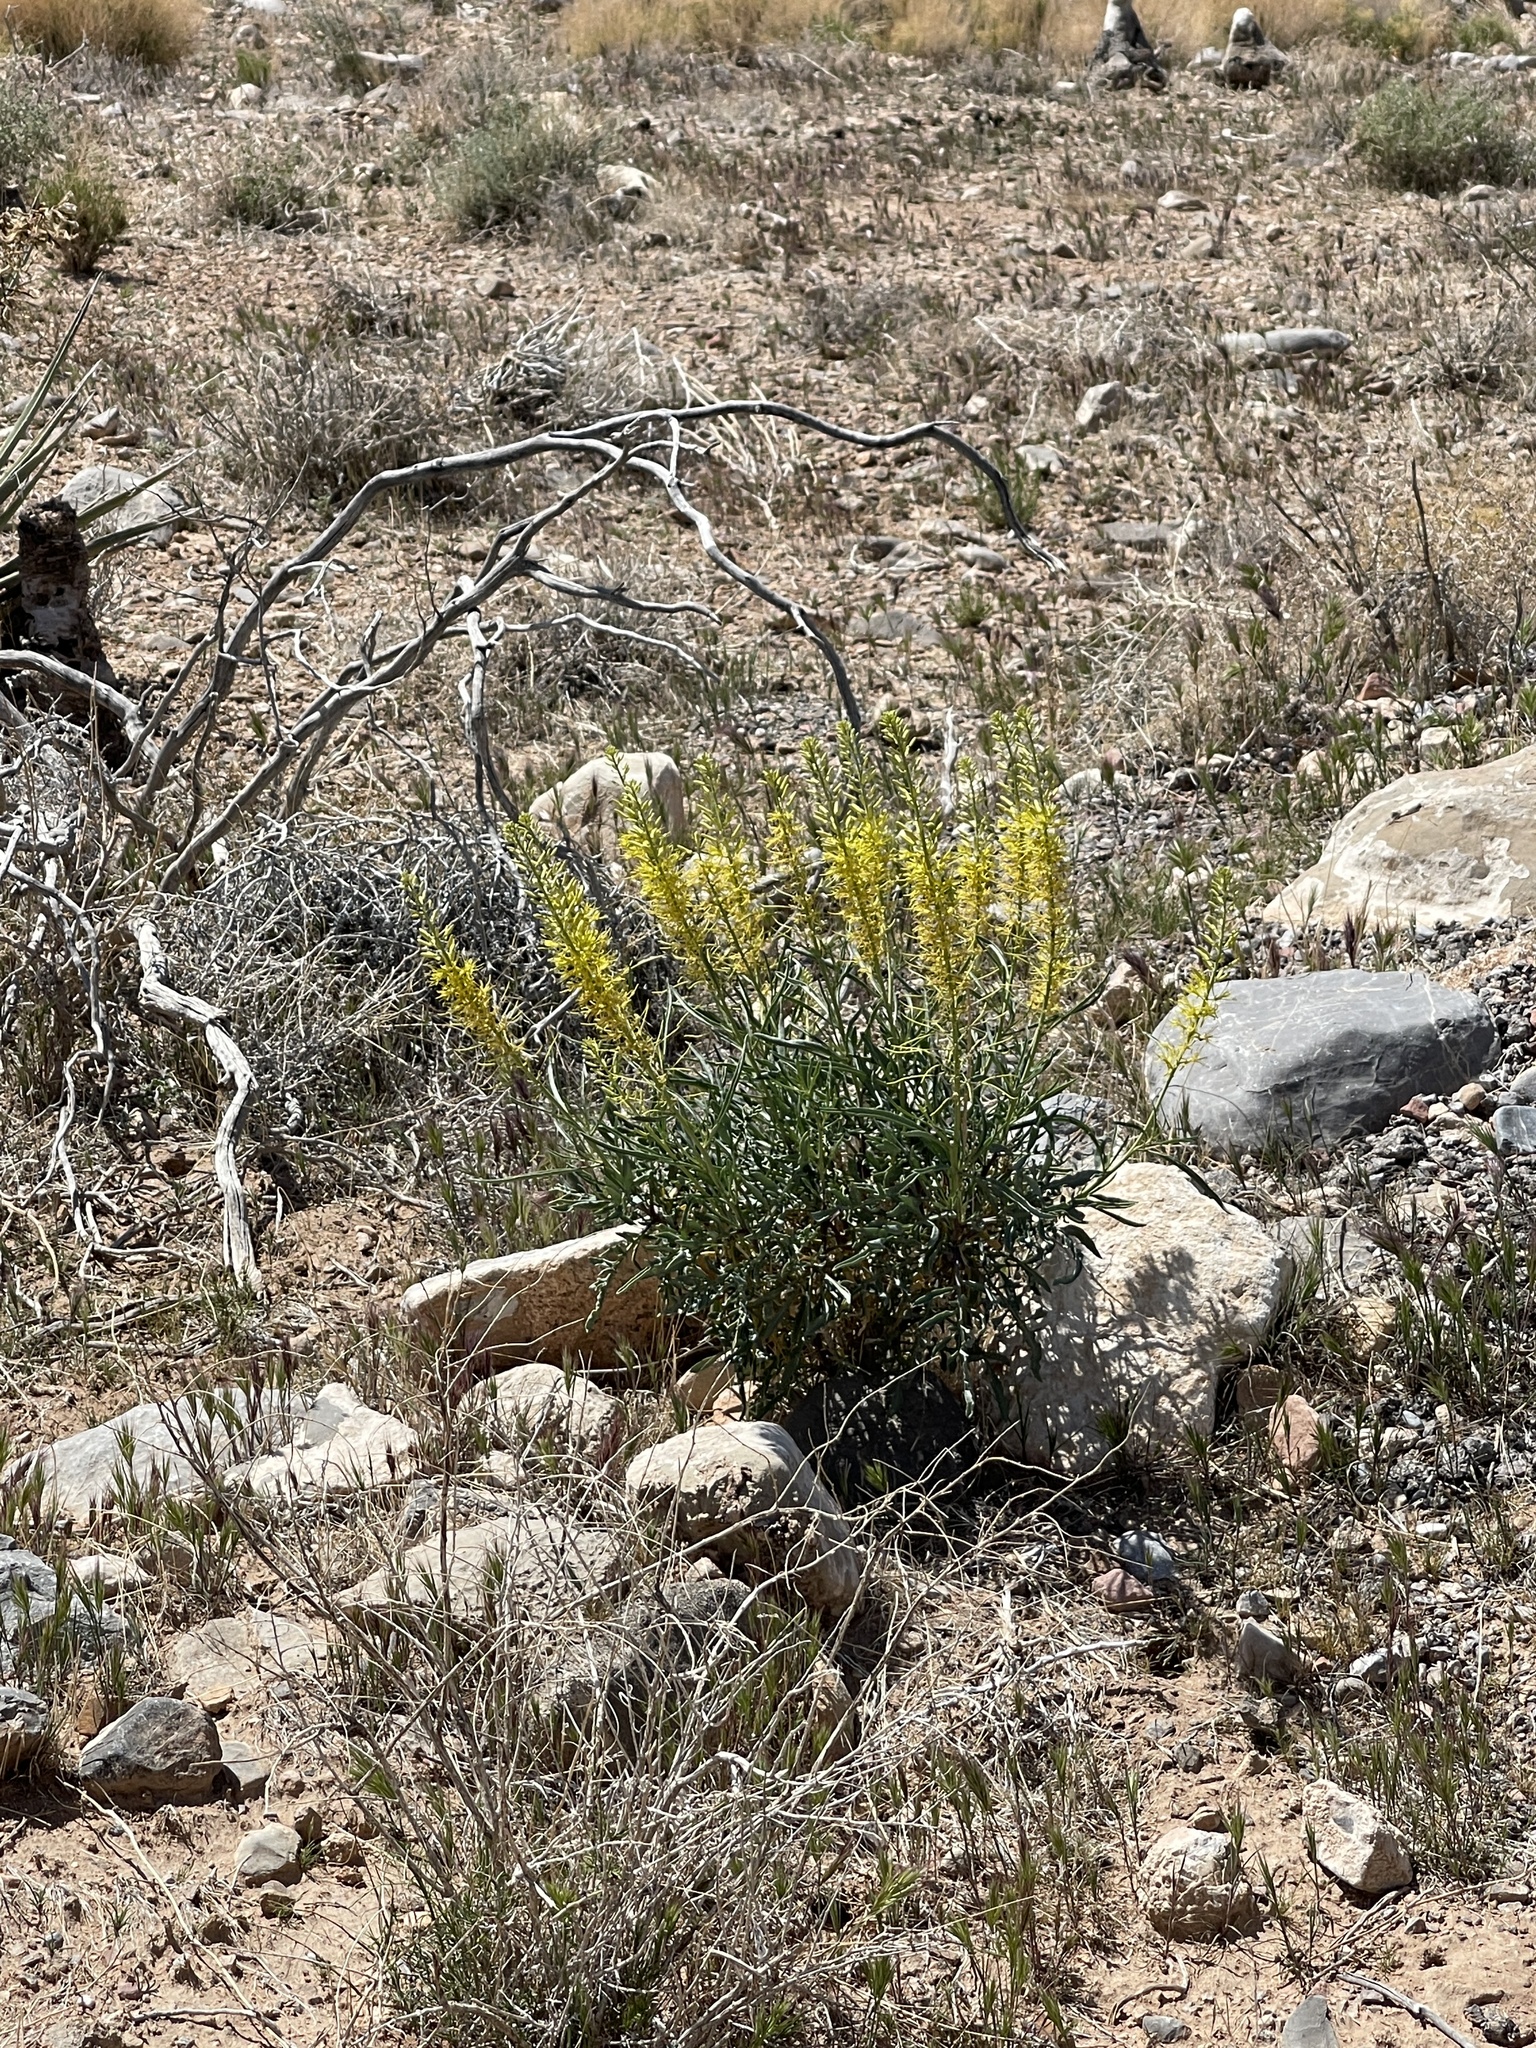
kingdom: Plantae
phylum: Tracheophyta
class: Magnoliopsida
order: Brassicales
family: Brassicaceae
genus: Stanleya
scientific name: Stanleya pinnata
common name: Prince's-plume
